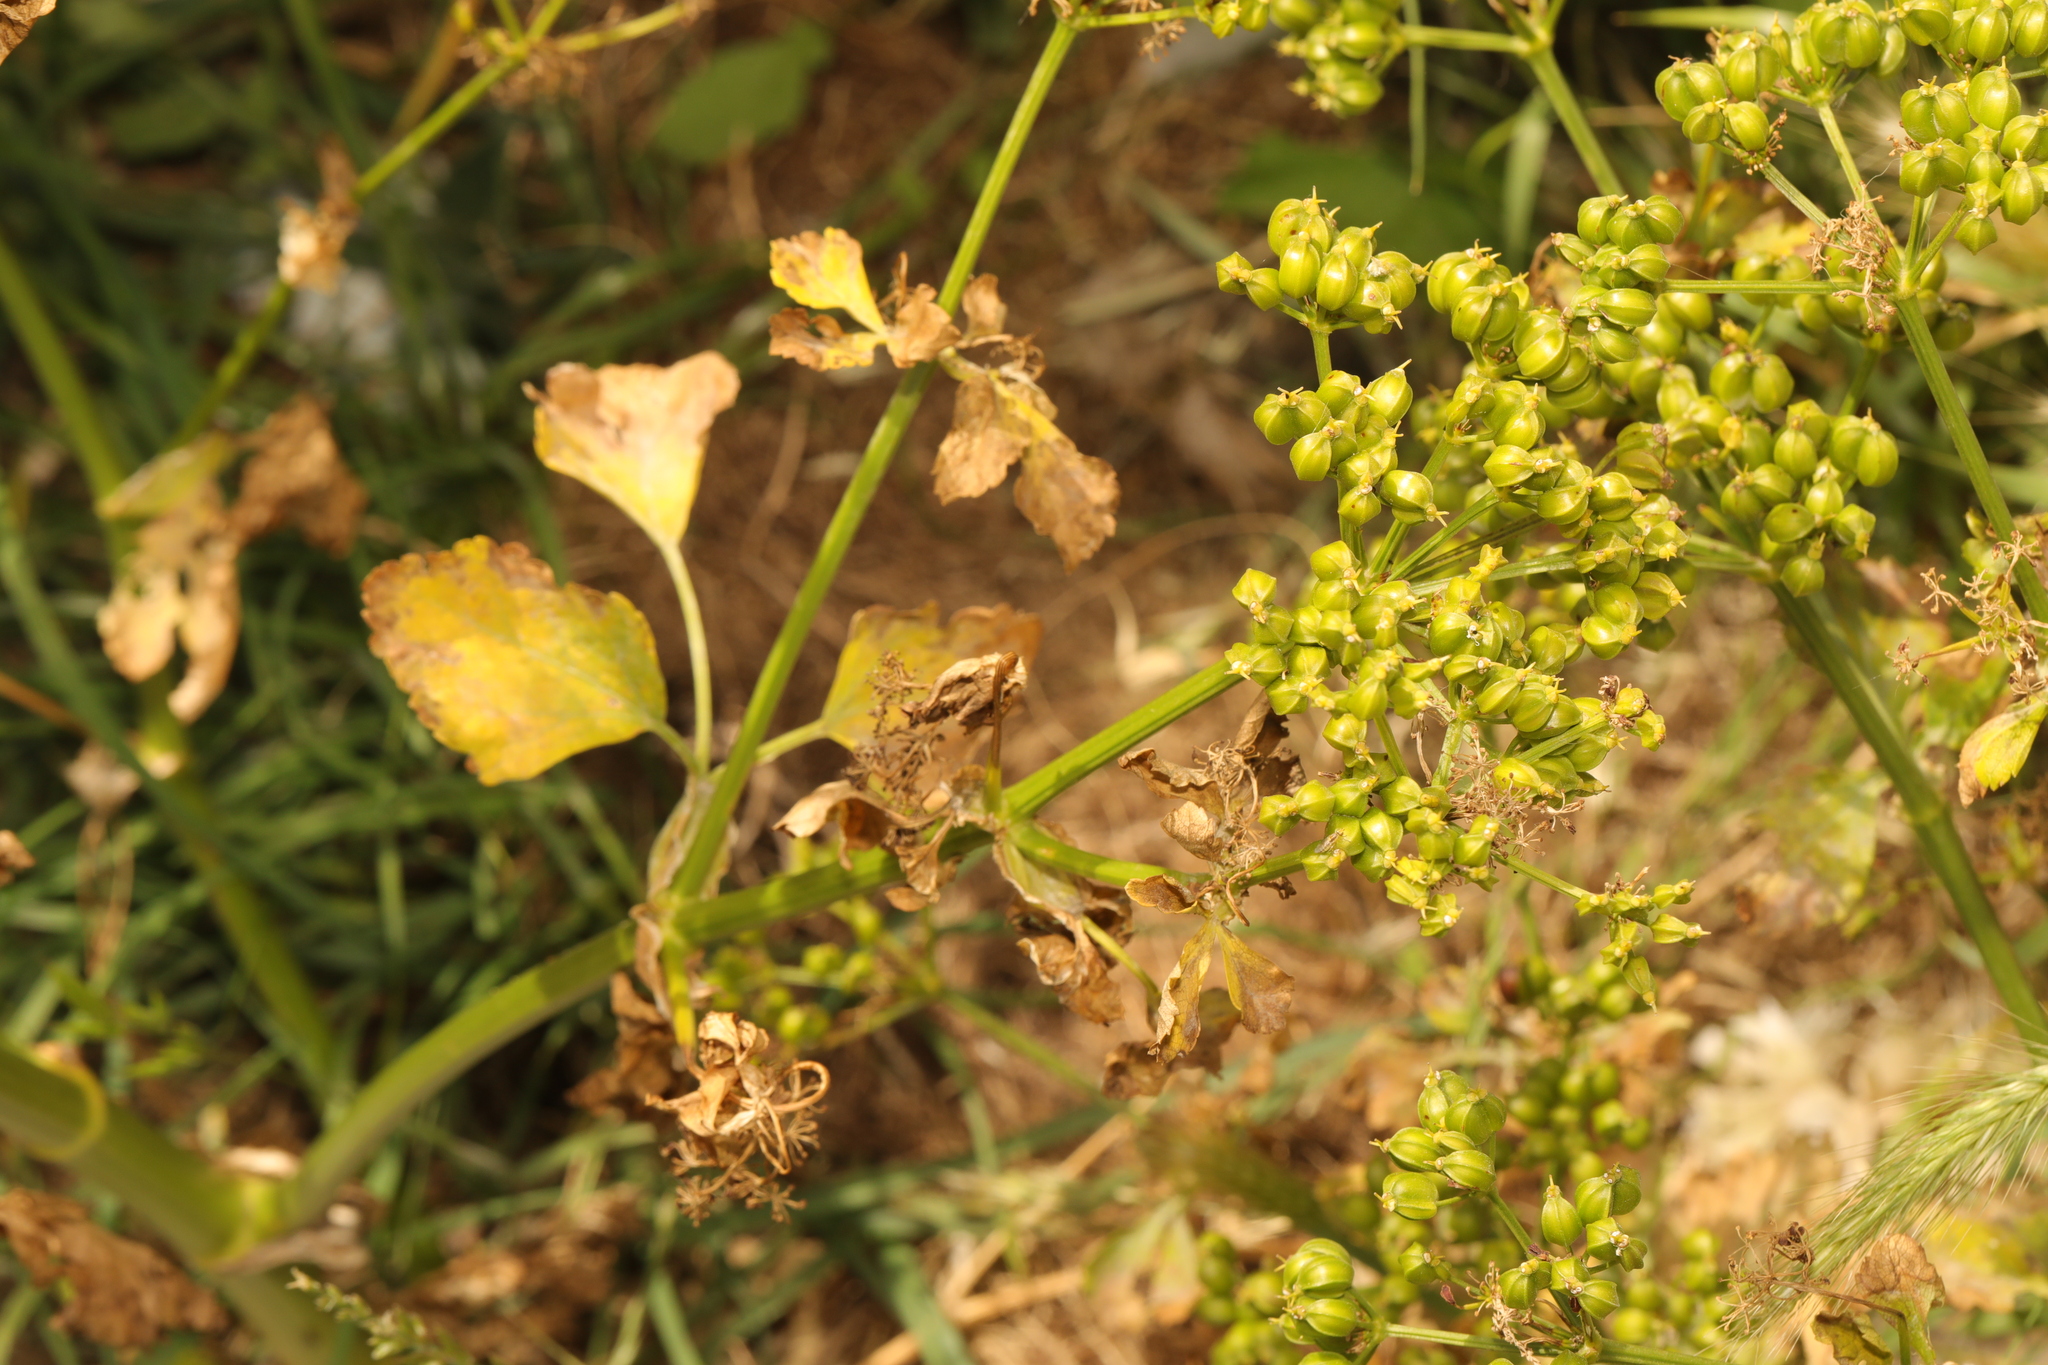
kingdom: Plantae
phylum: Tracheophyta
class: Magnoliopsida
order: Apiales
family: Apiaceae
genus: Smyrnium
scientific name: Smyrnium olusatrum
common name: Alexanders
